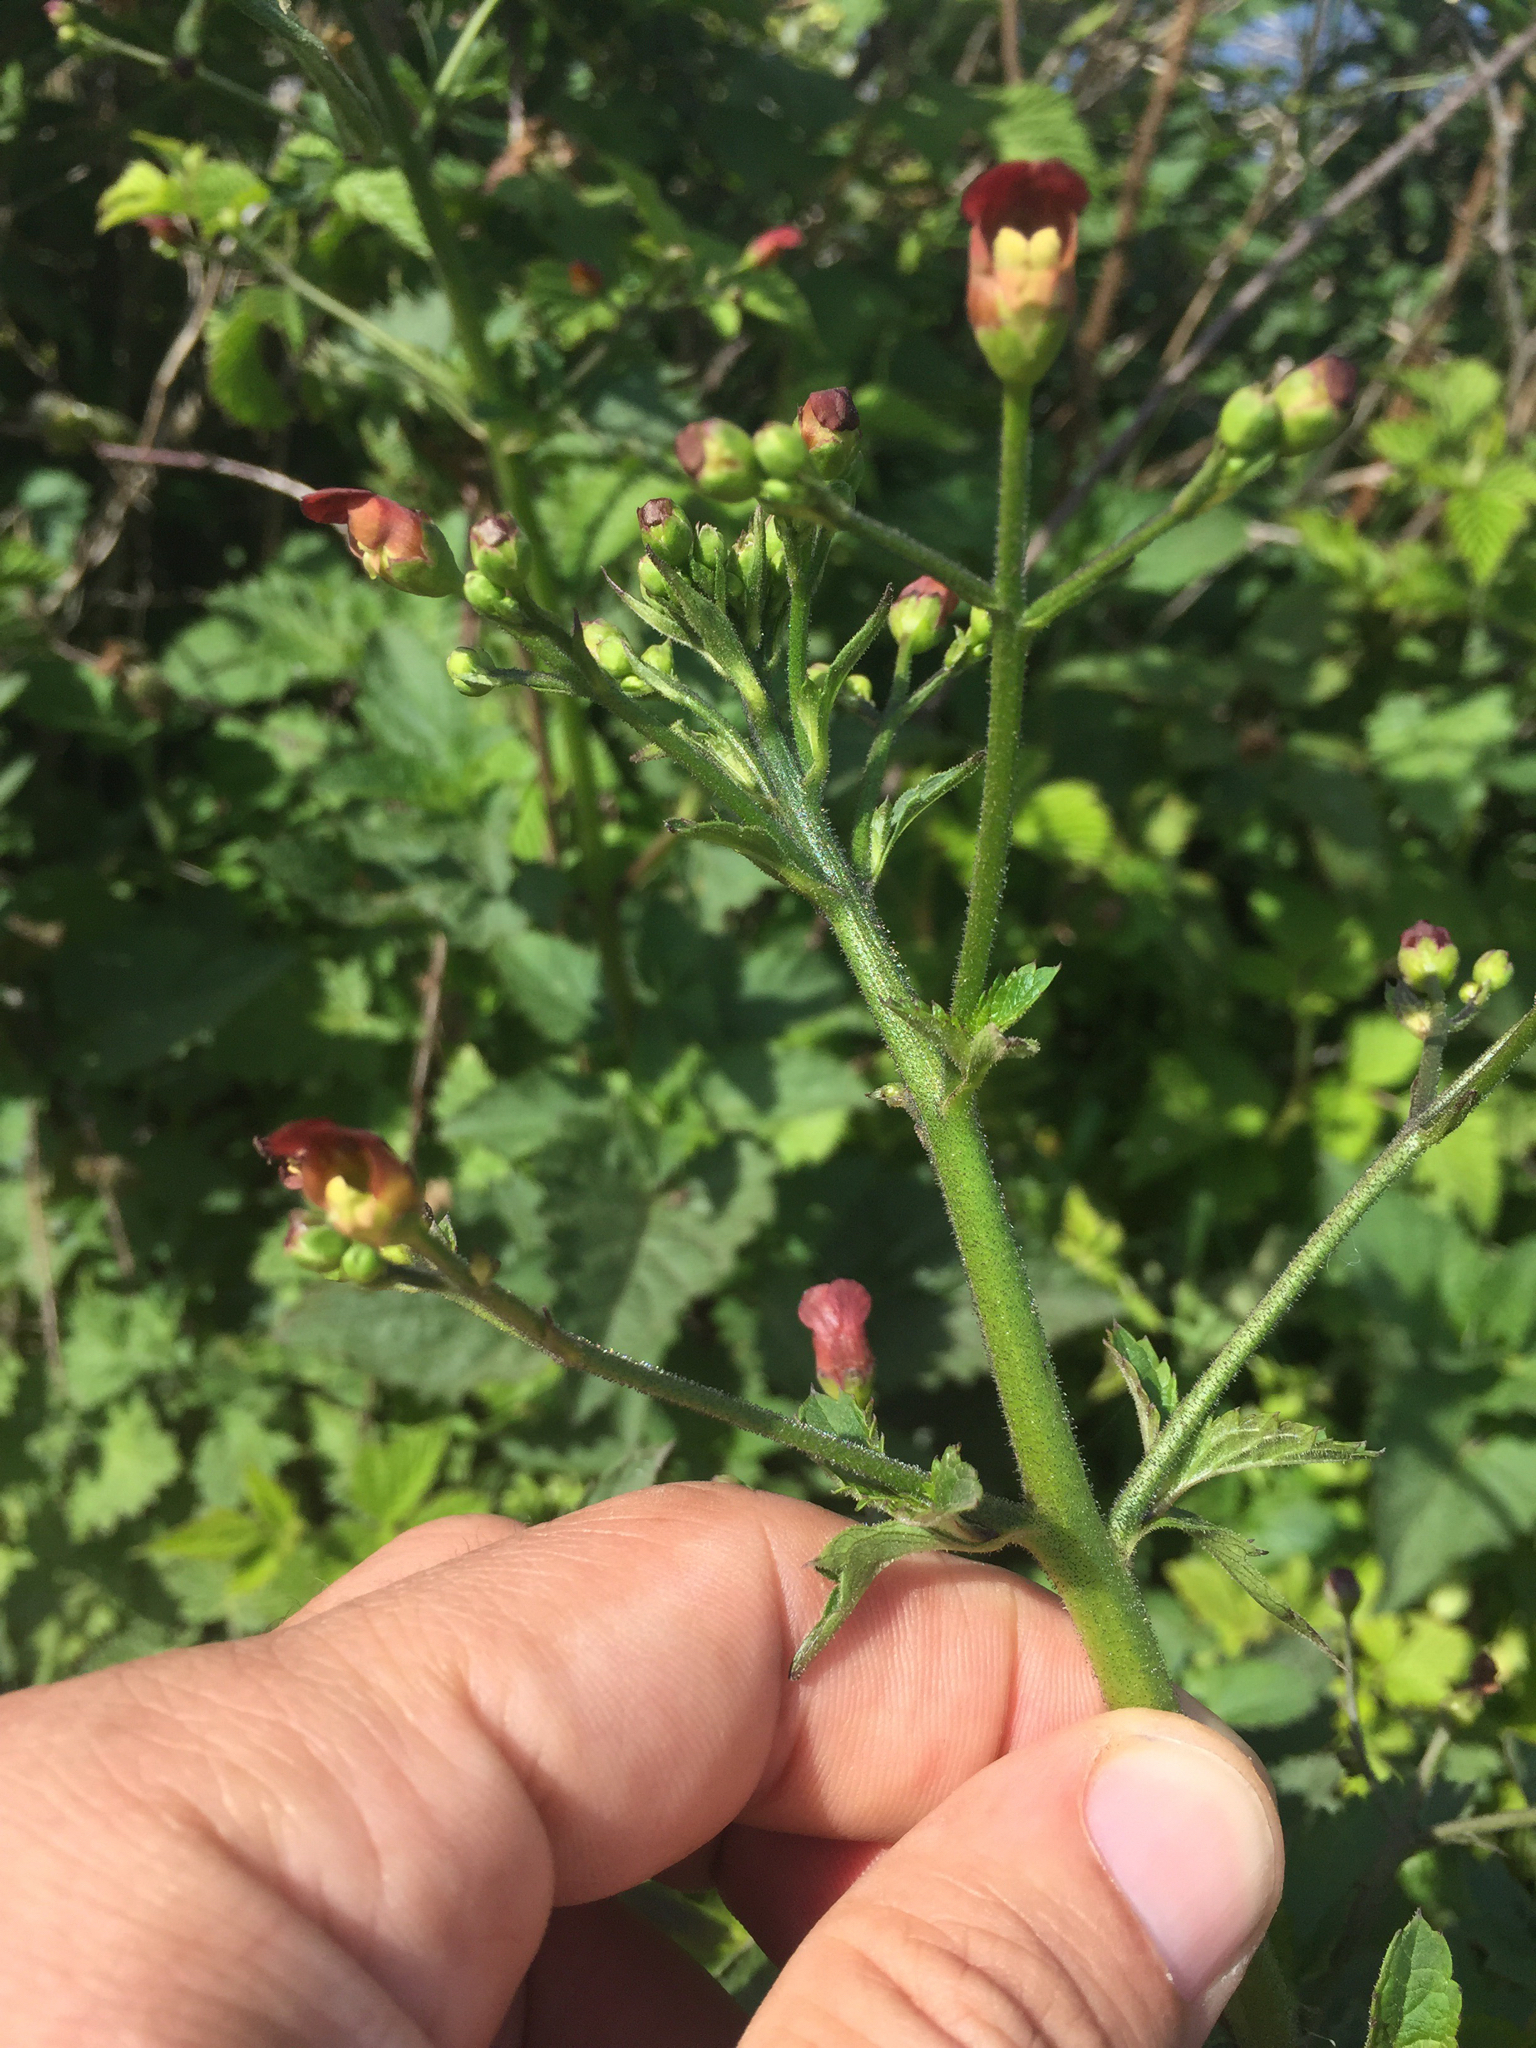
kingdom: Plantae
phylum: Tracheophyta
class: Magnoliopsida
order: Lamiales
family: Scrophulariaceae
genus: Scrophularia
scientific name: Scrophularia californica
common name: California figwort
